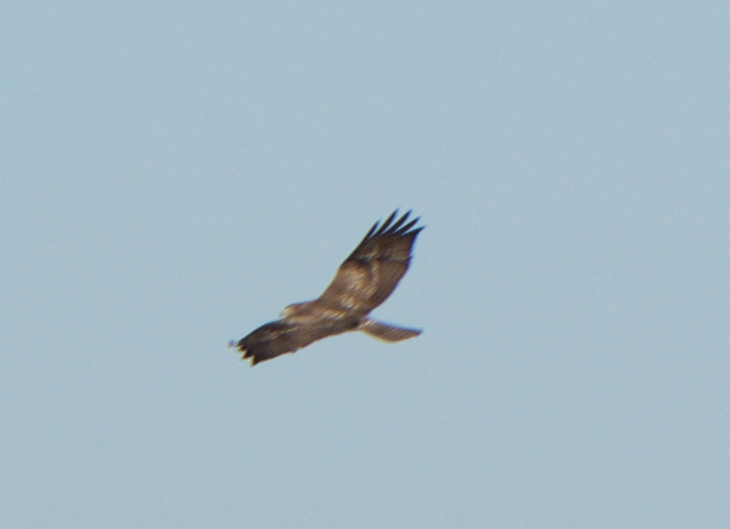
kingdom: Animalia
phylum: Chordata
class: Aves
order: Accipitriformes
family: Accipitridae
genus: Buteo
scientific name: Buteo jamaicensis
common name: Red-tailed hawk
